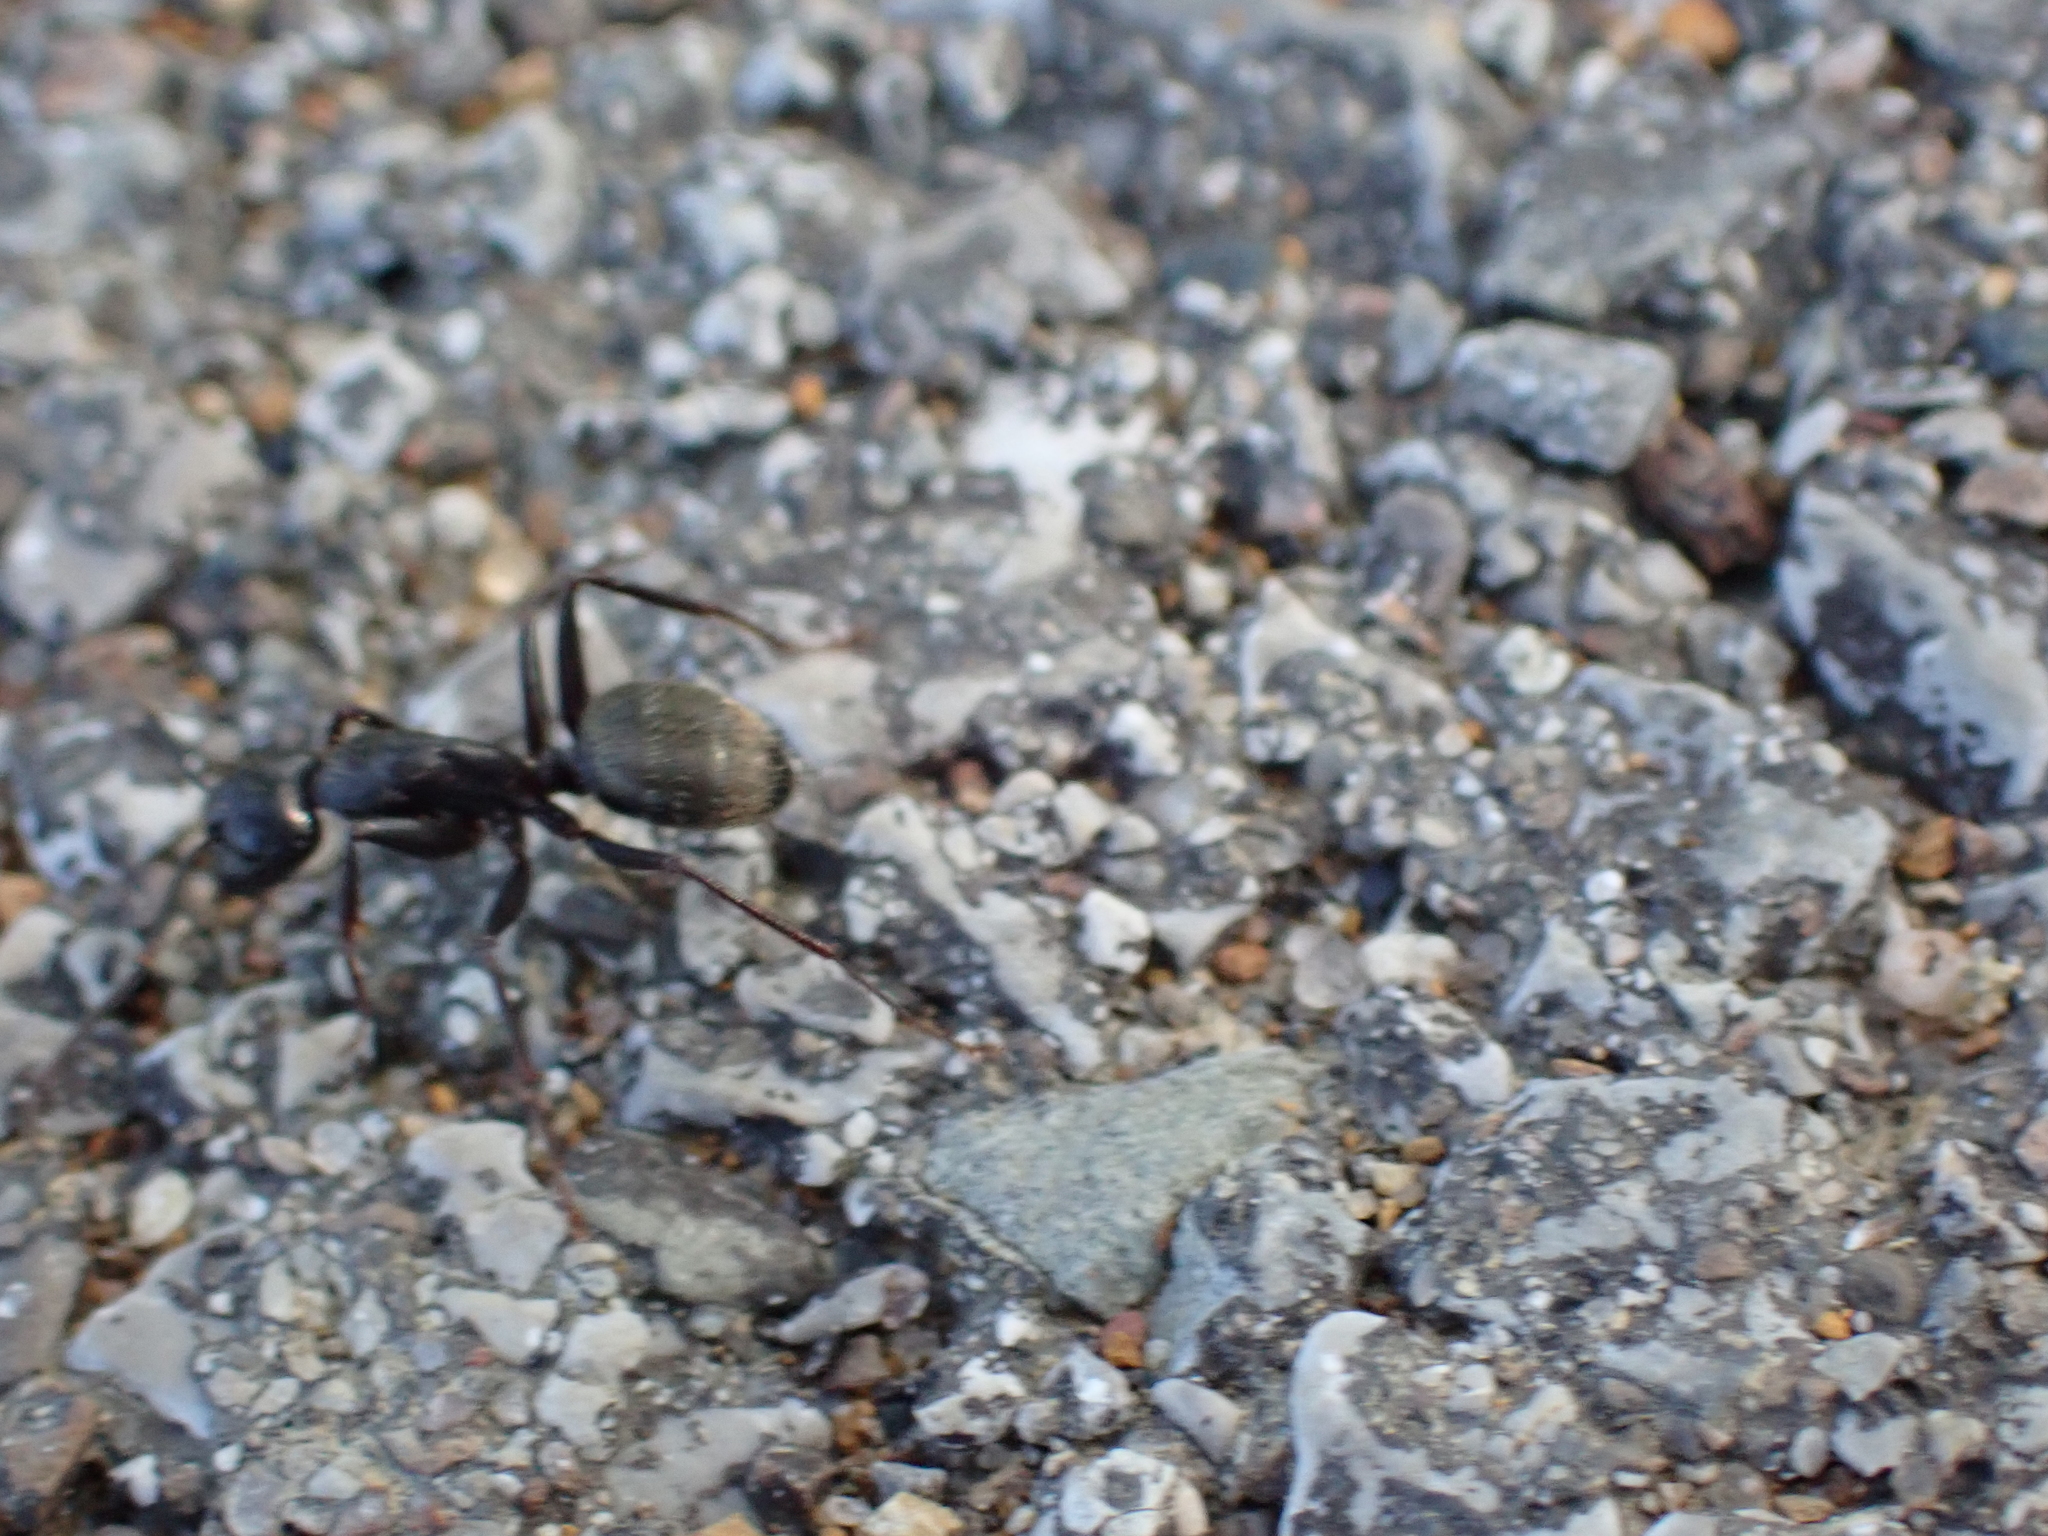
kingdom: Animalia
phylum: Arthropoda
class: Insecta
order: Hymenoptera
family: Formicidae
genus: Camponotus
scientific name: Camponotus pennsylvanicus
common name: Black carpenter ant
